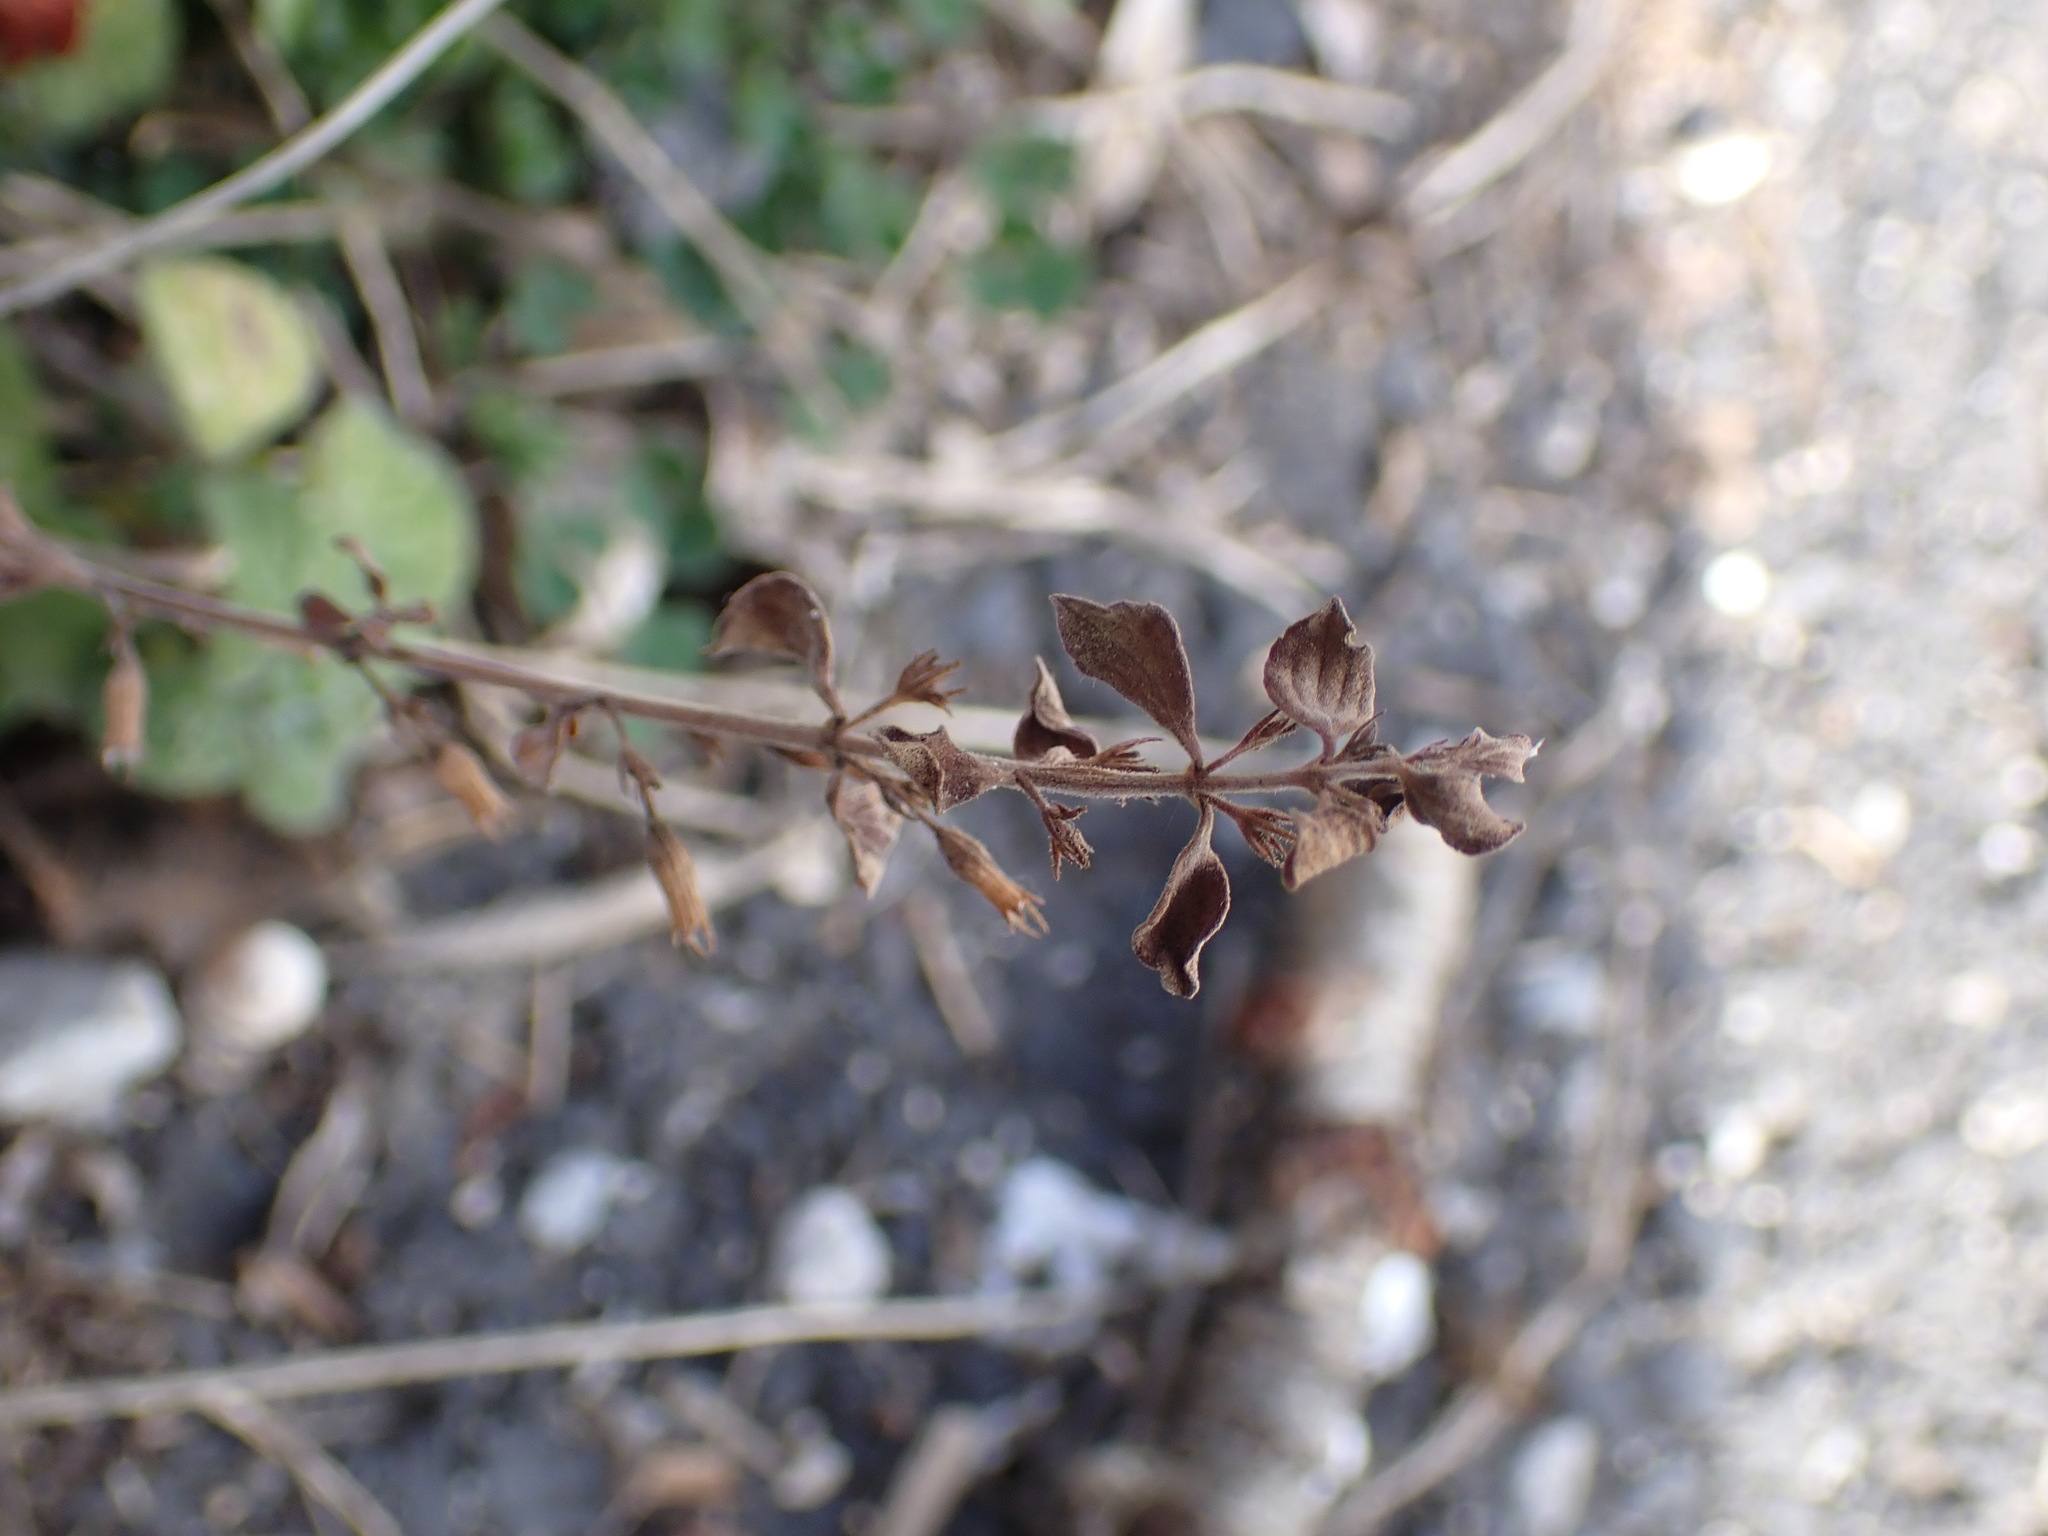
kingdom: Plantae
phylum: Tracheophyta
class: Magnoliopsida
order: Lamiales
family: Lamiaceae
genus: Clinopodium
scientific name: Clinopodium nepeta
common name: Lesser calamint
